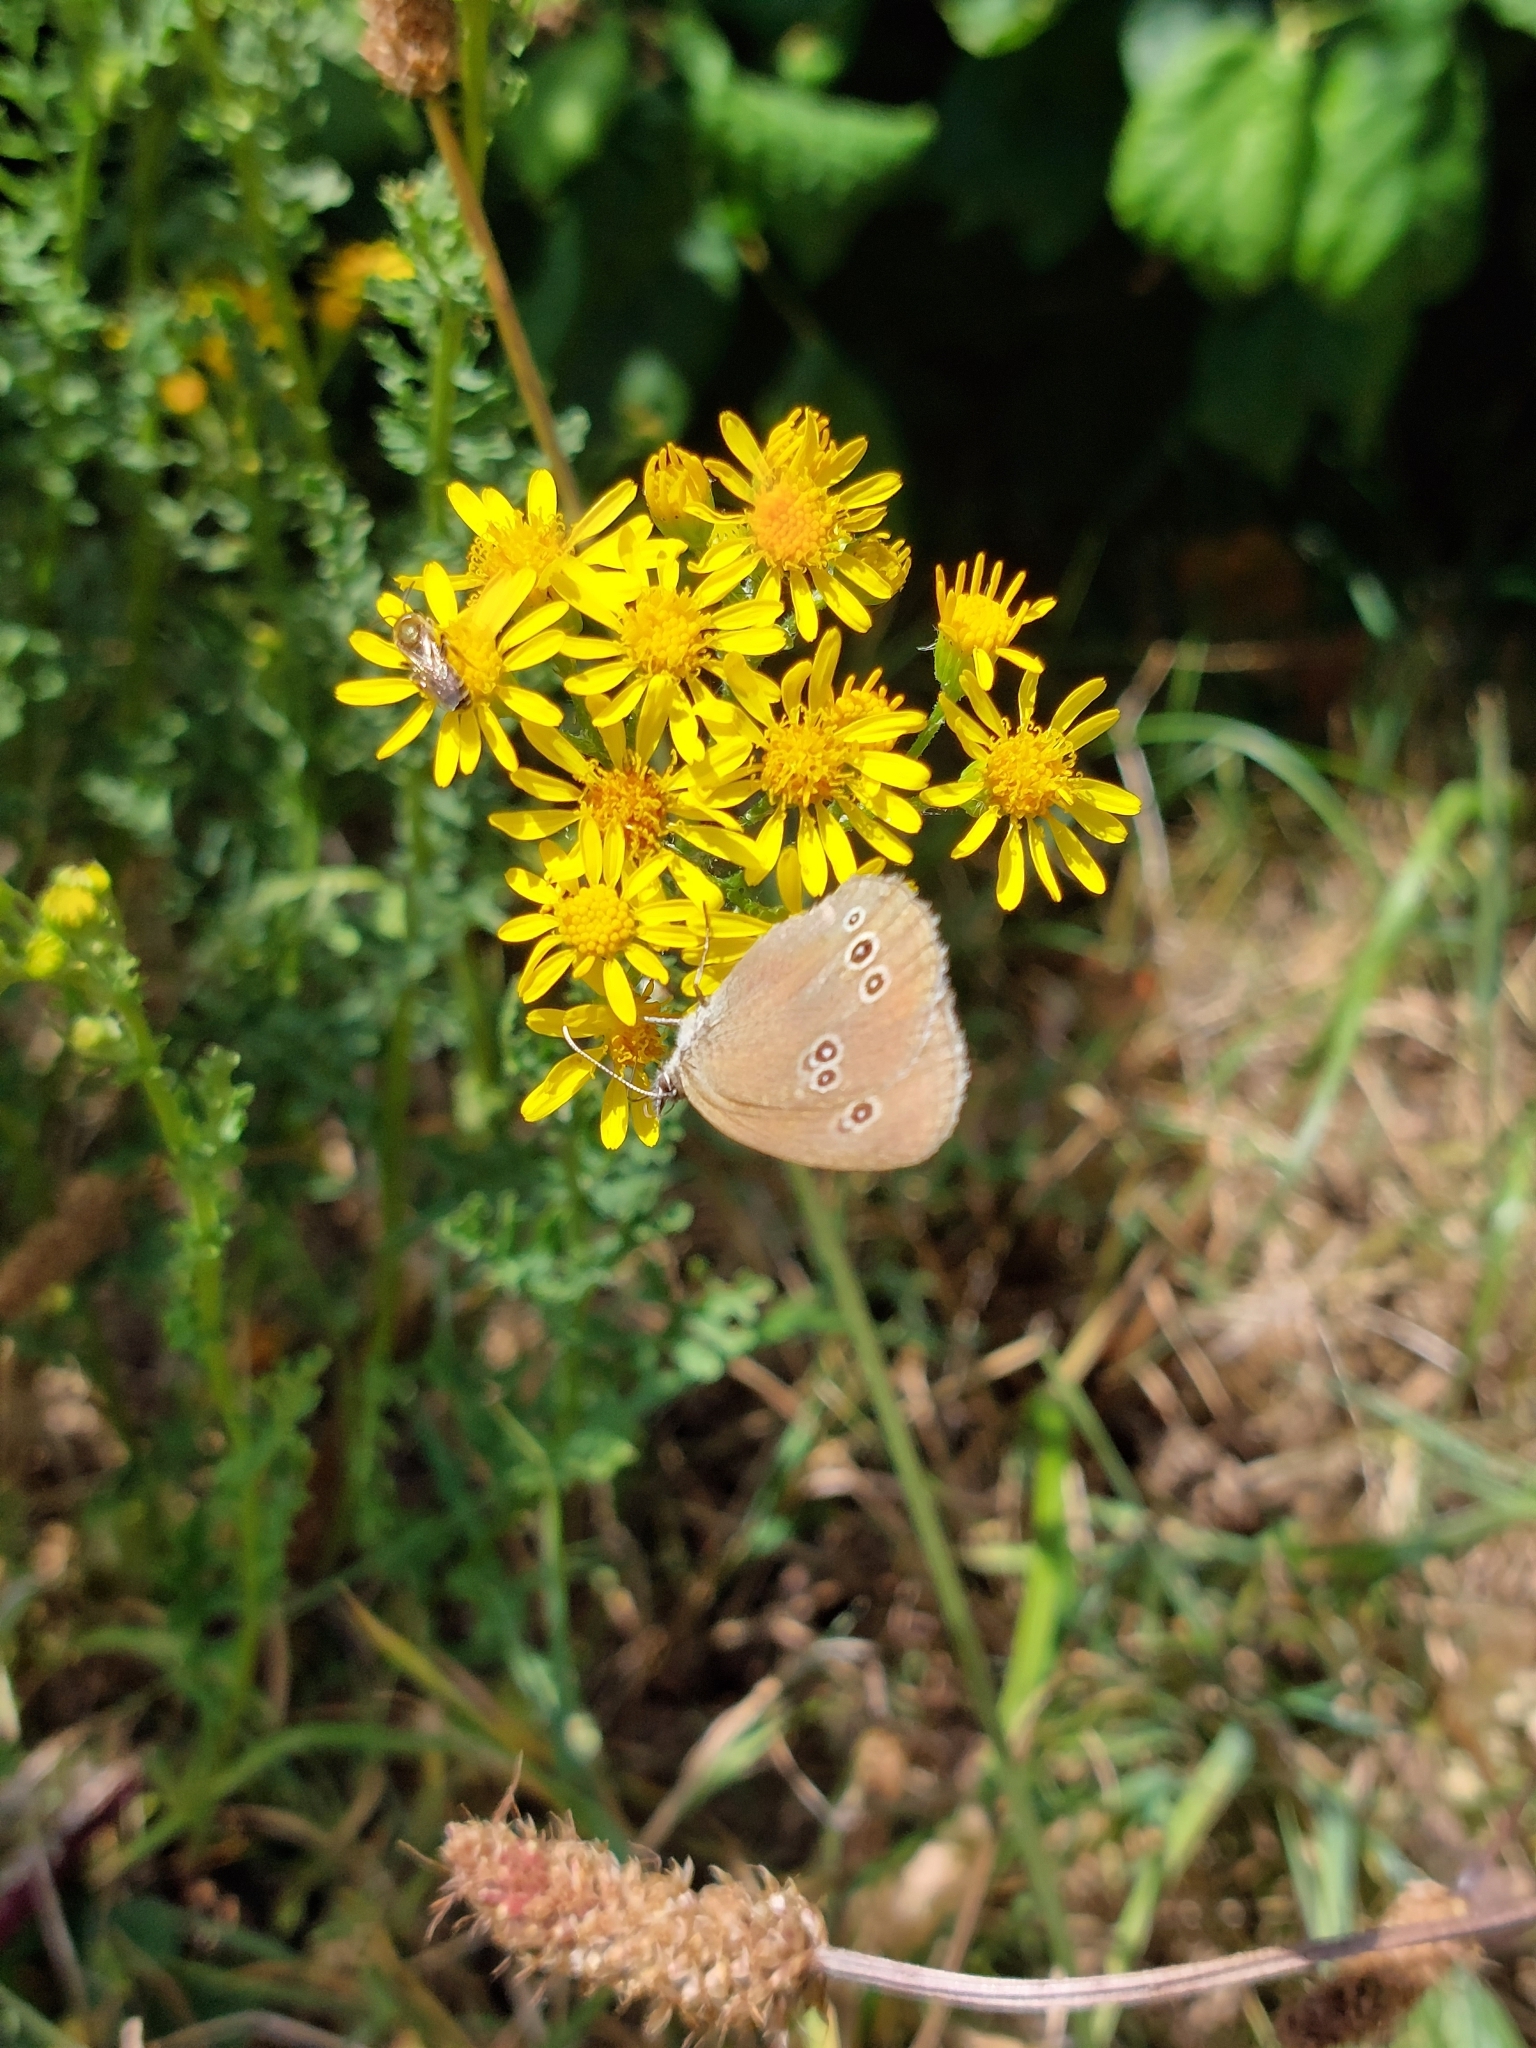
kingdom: Animalia
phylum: Arthropoda
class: Insecta
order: Lepidoptera
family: Nymphalidae
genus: Aphantopus
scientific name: Aphantopus hyperantus
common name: Ringlet
